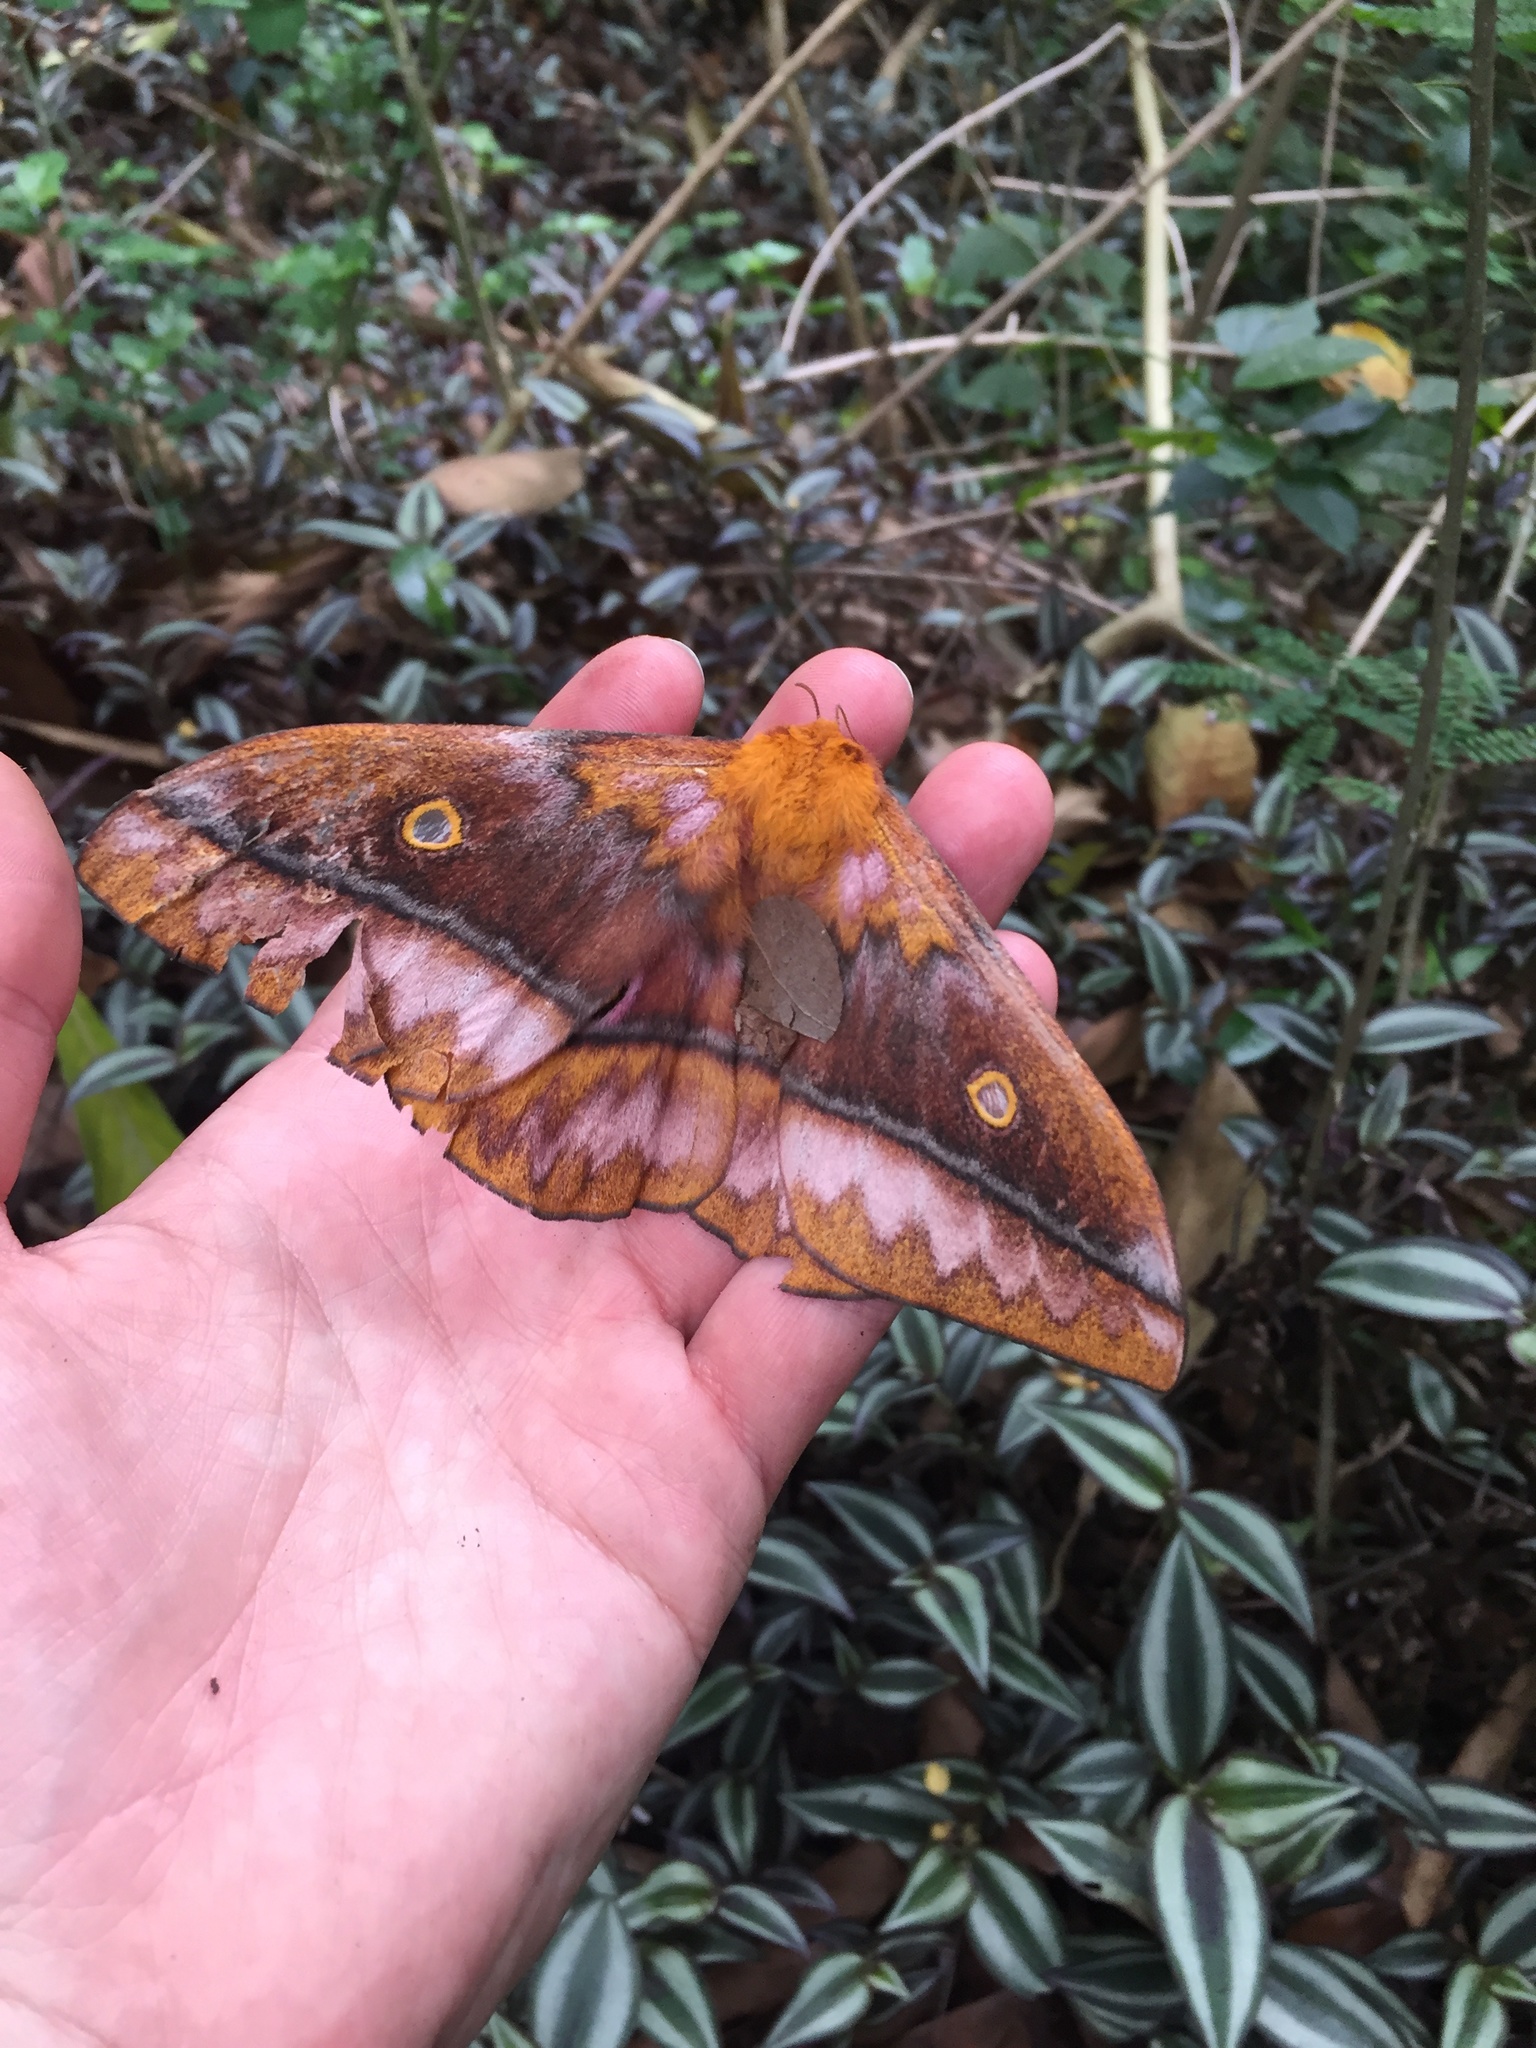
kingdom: Animalia
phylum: Arthropoda
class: Insecta
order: Lepidoptera
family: Saturniidae
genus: Nudaurelia
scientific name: Nudaurelia wahlbergi
